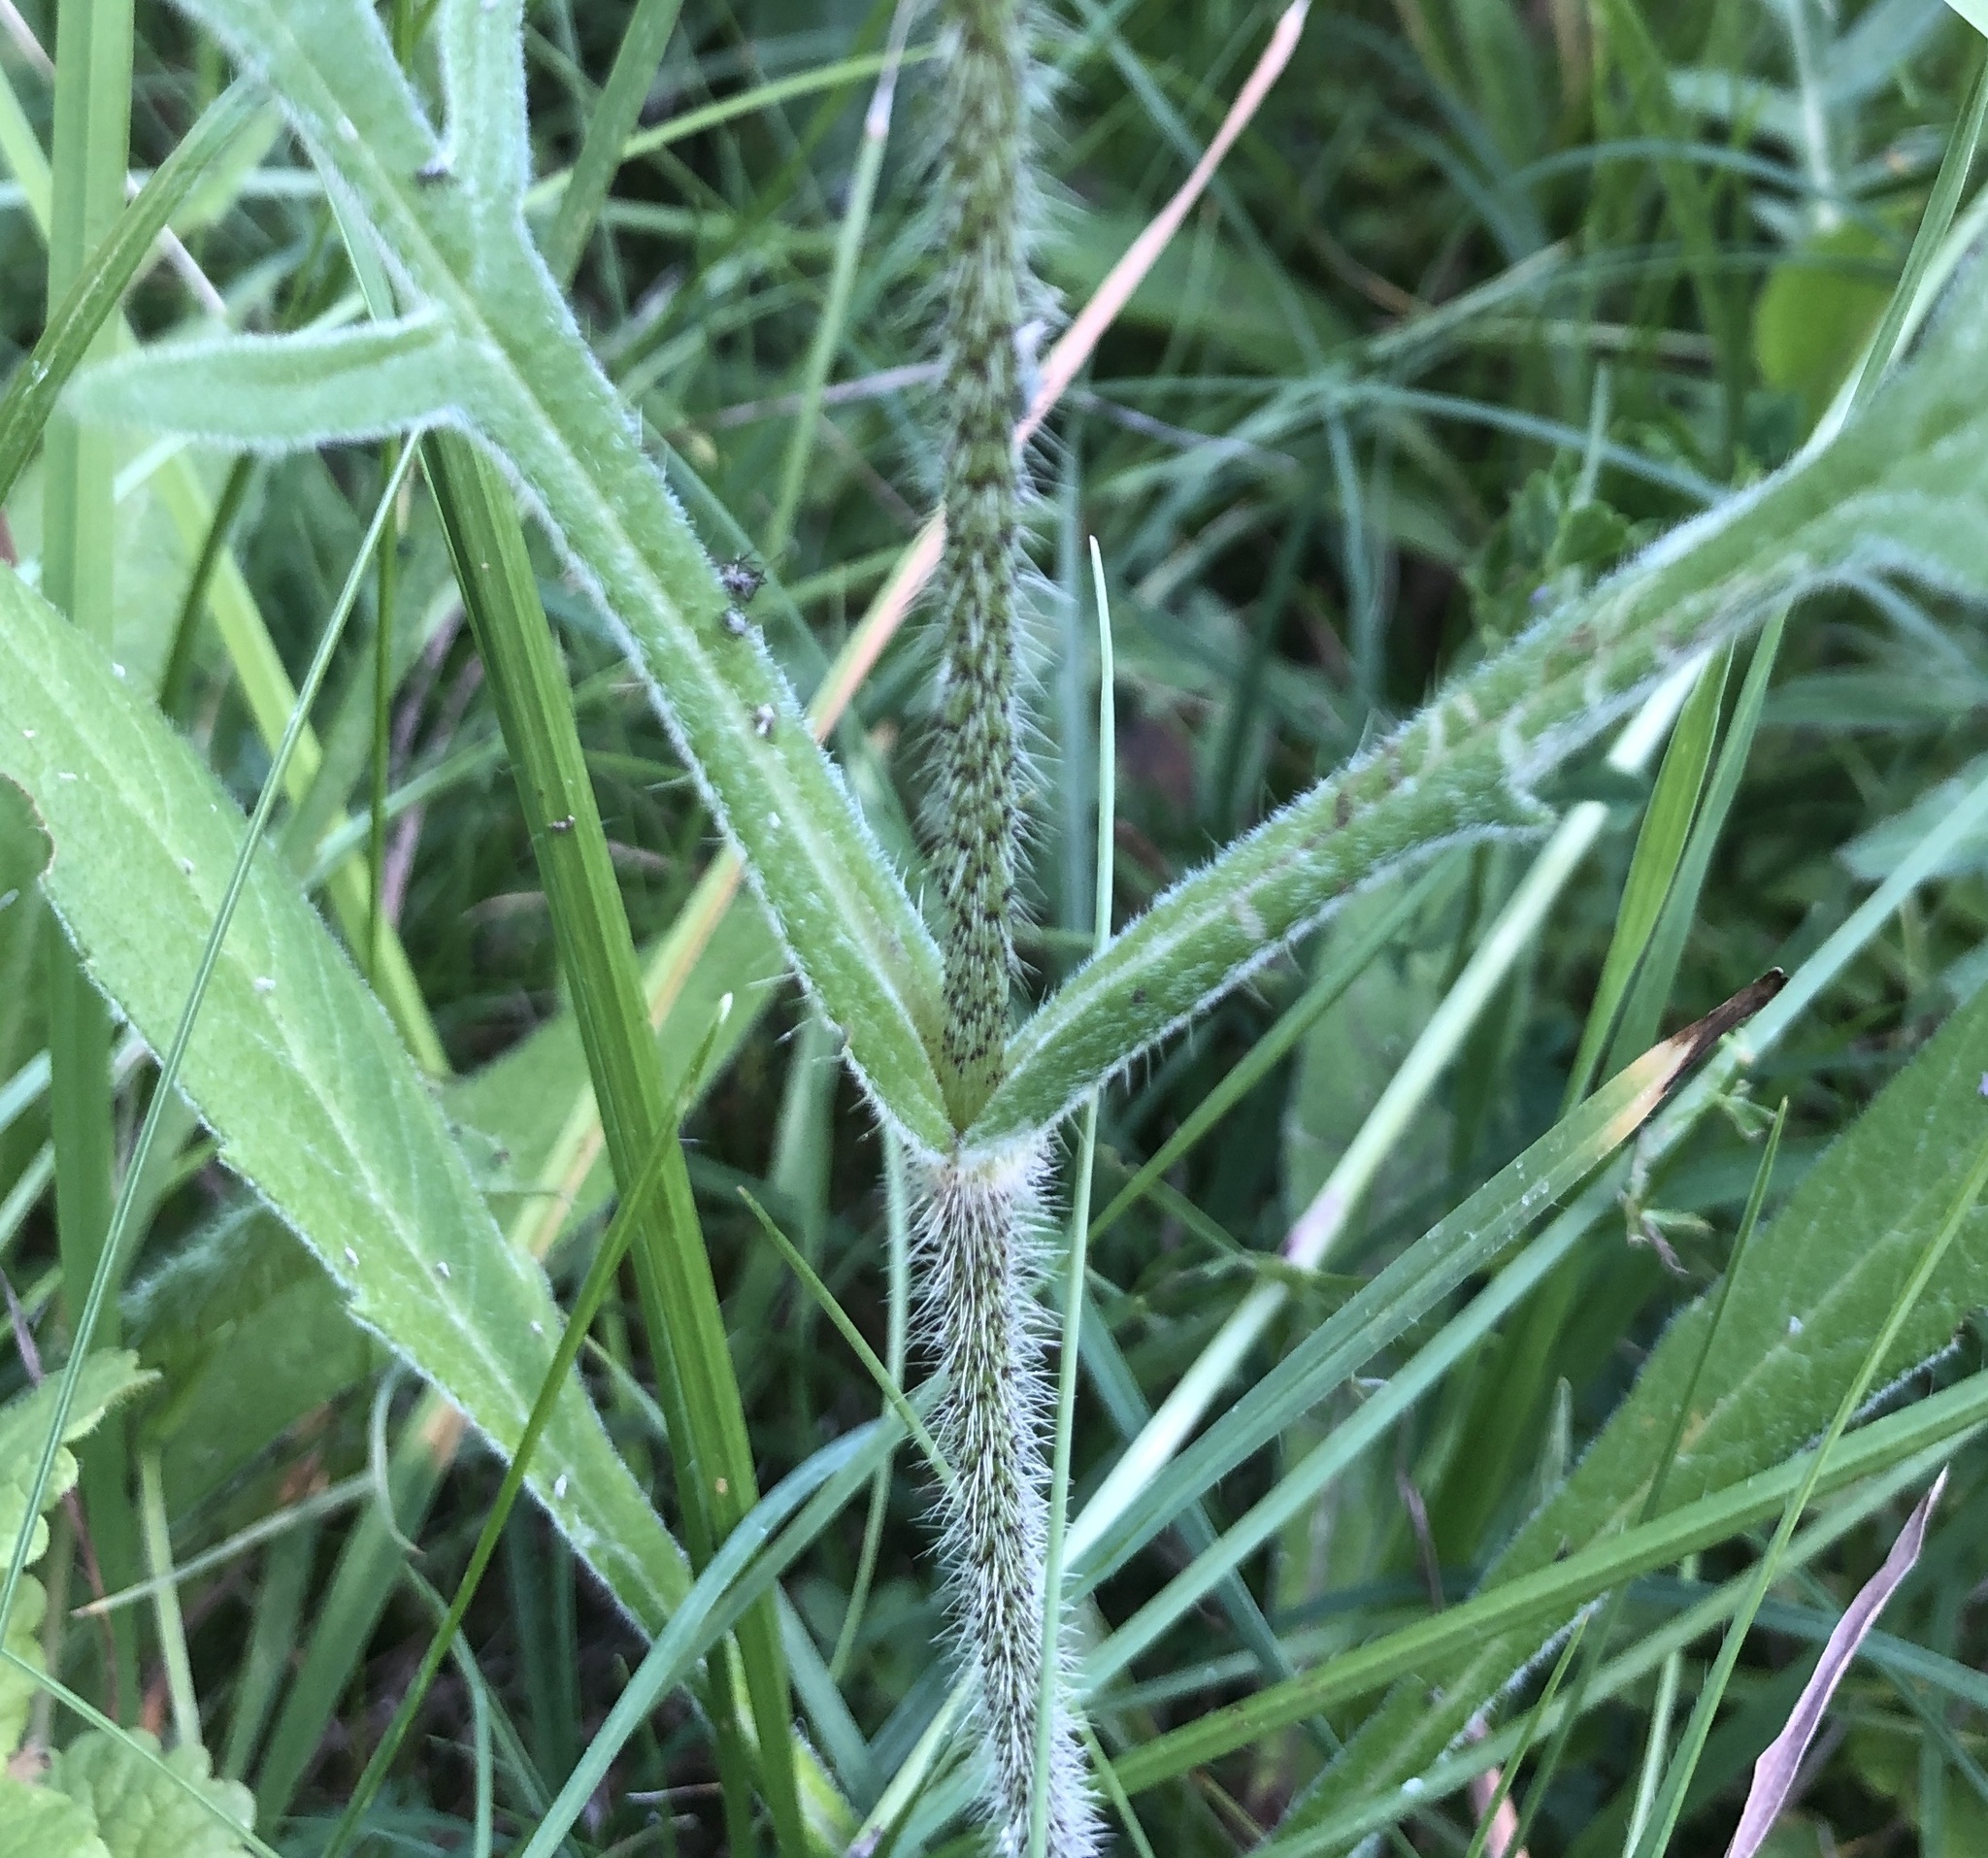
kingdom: Plantae
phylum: Tracheophyta
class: Magnoliopsida
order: Dipsacales
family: Caprifoliaceae
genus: Knautia
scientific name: Knautia arvensis
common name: Field scabiosa
